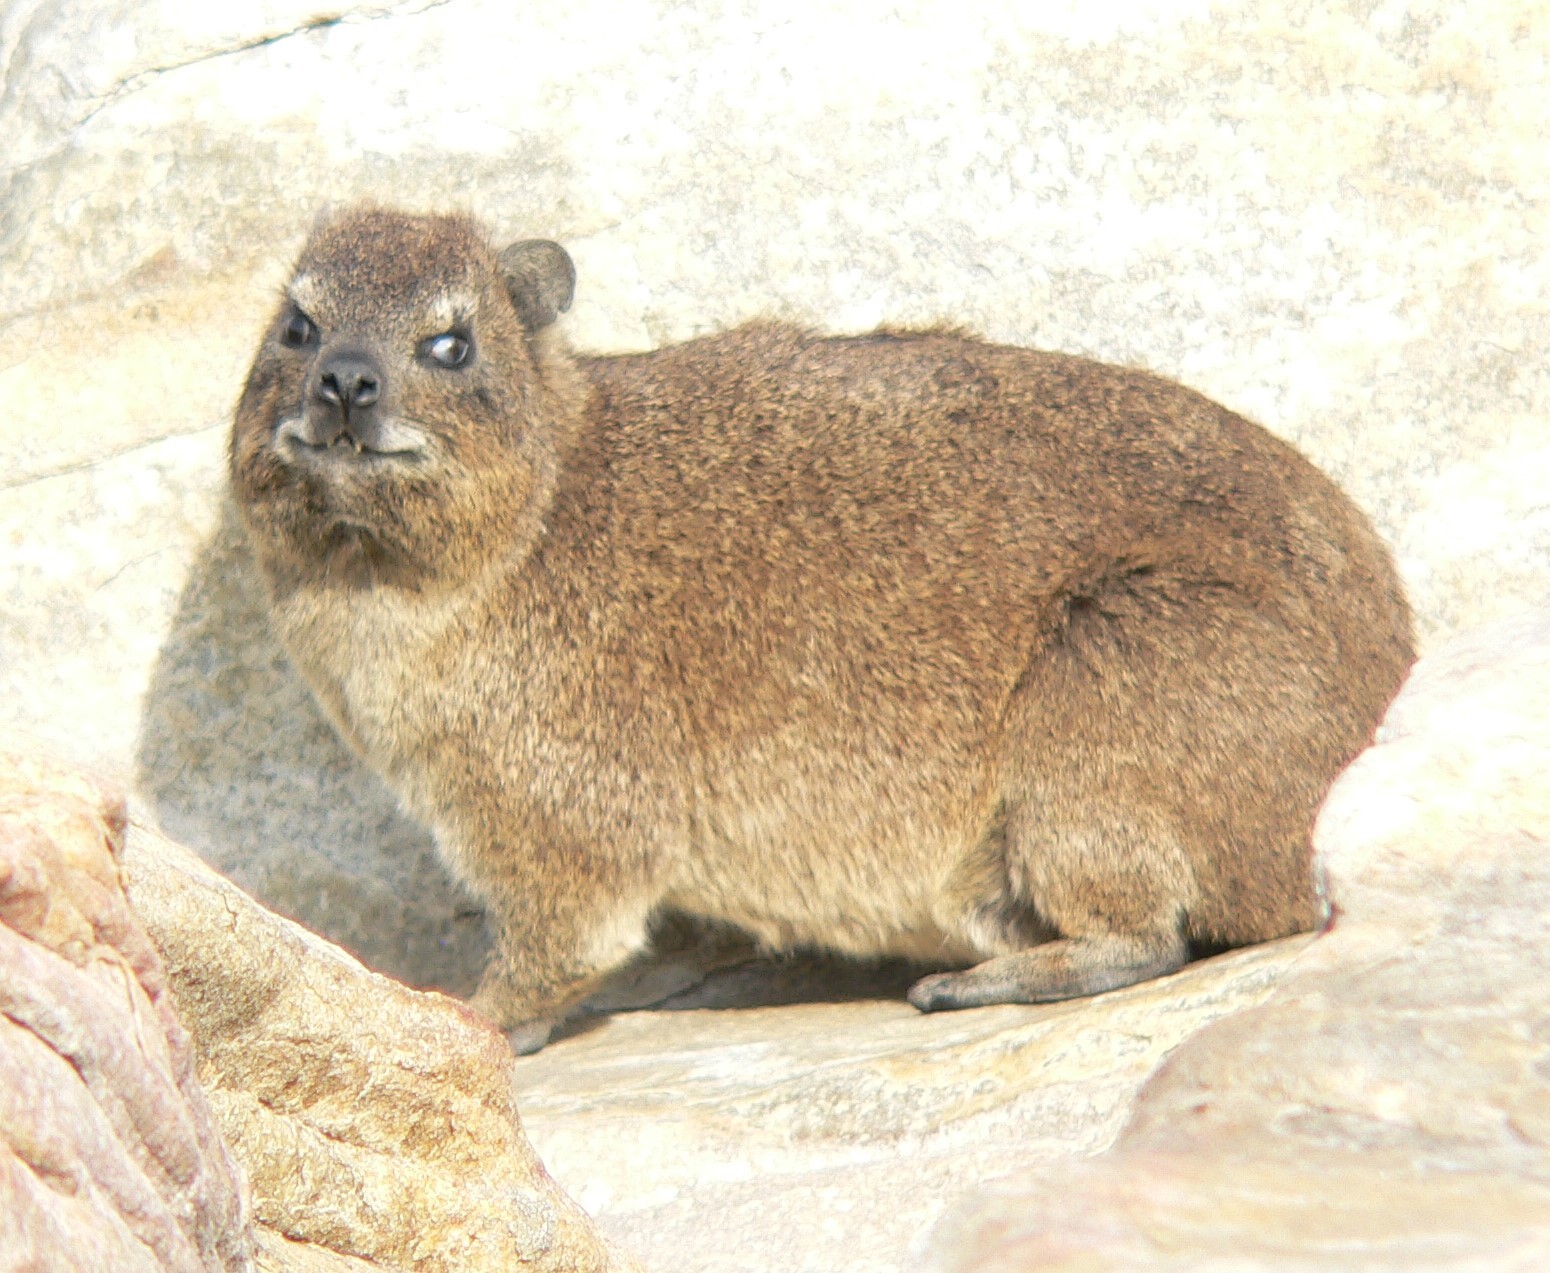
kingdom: Animalia
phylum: Chordata
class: Mammalia
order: Hyracoidea
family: Procaviidae
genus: Procavia
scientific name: Procavia capensis
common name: Rock hyrax
